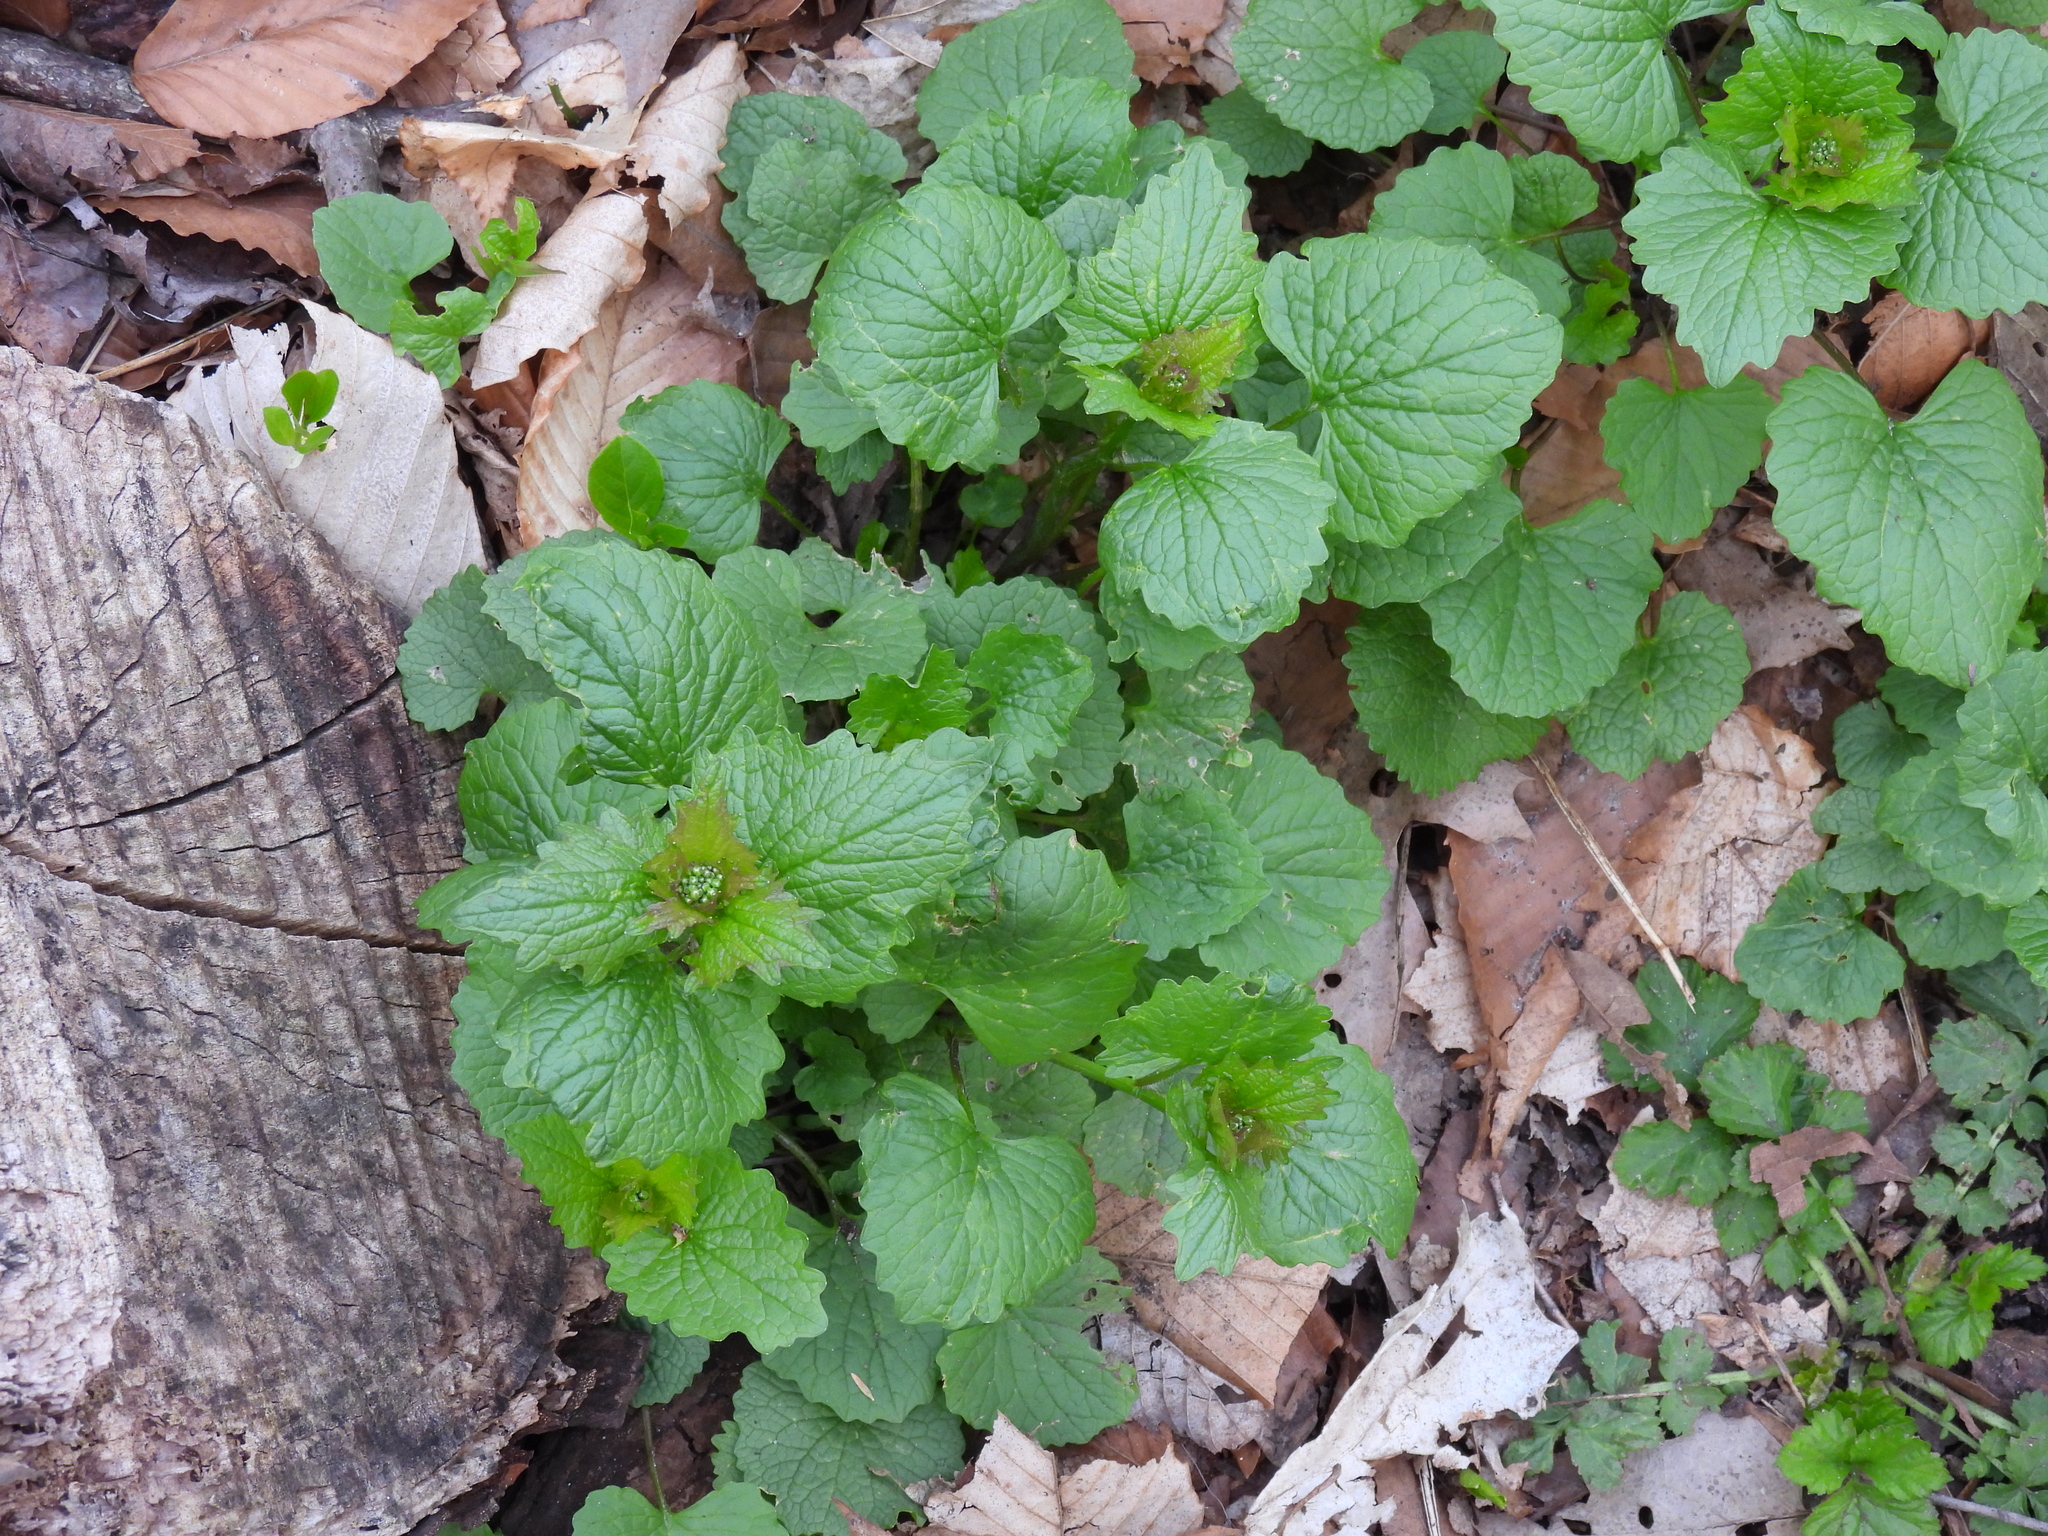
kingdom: Plantae
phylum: Tracheophyta
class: Magnoliopsida
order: Brassicales
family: Brassicaceae
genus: Alliaria
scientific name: Alliaria petiolata
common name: Garlic mustard
